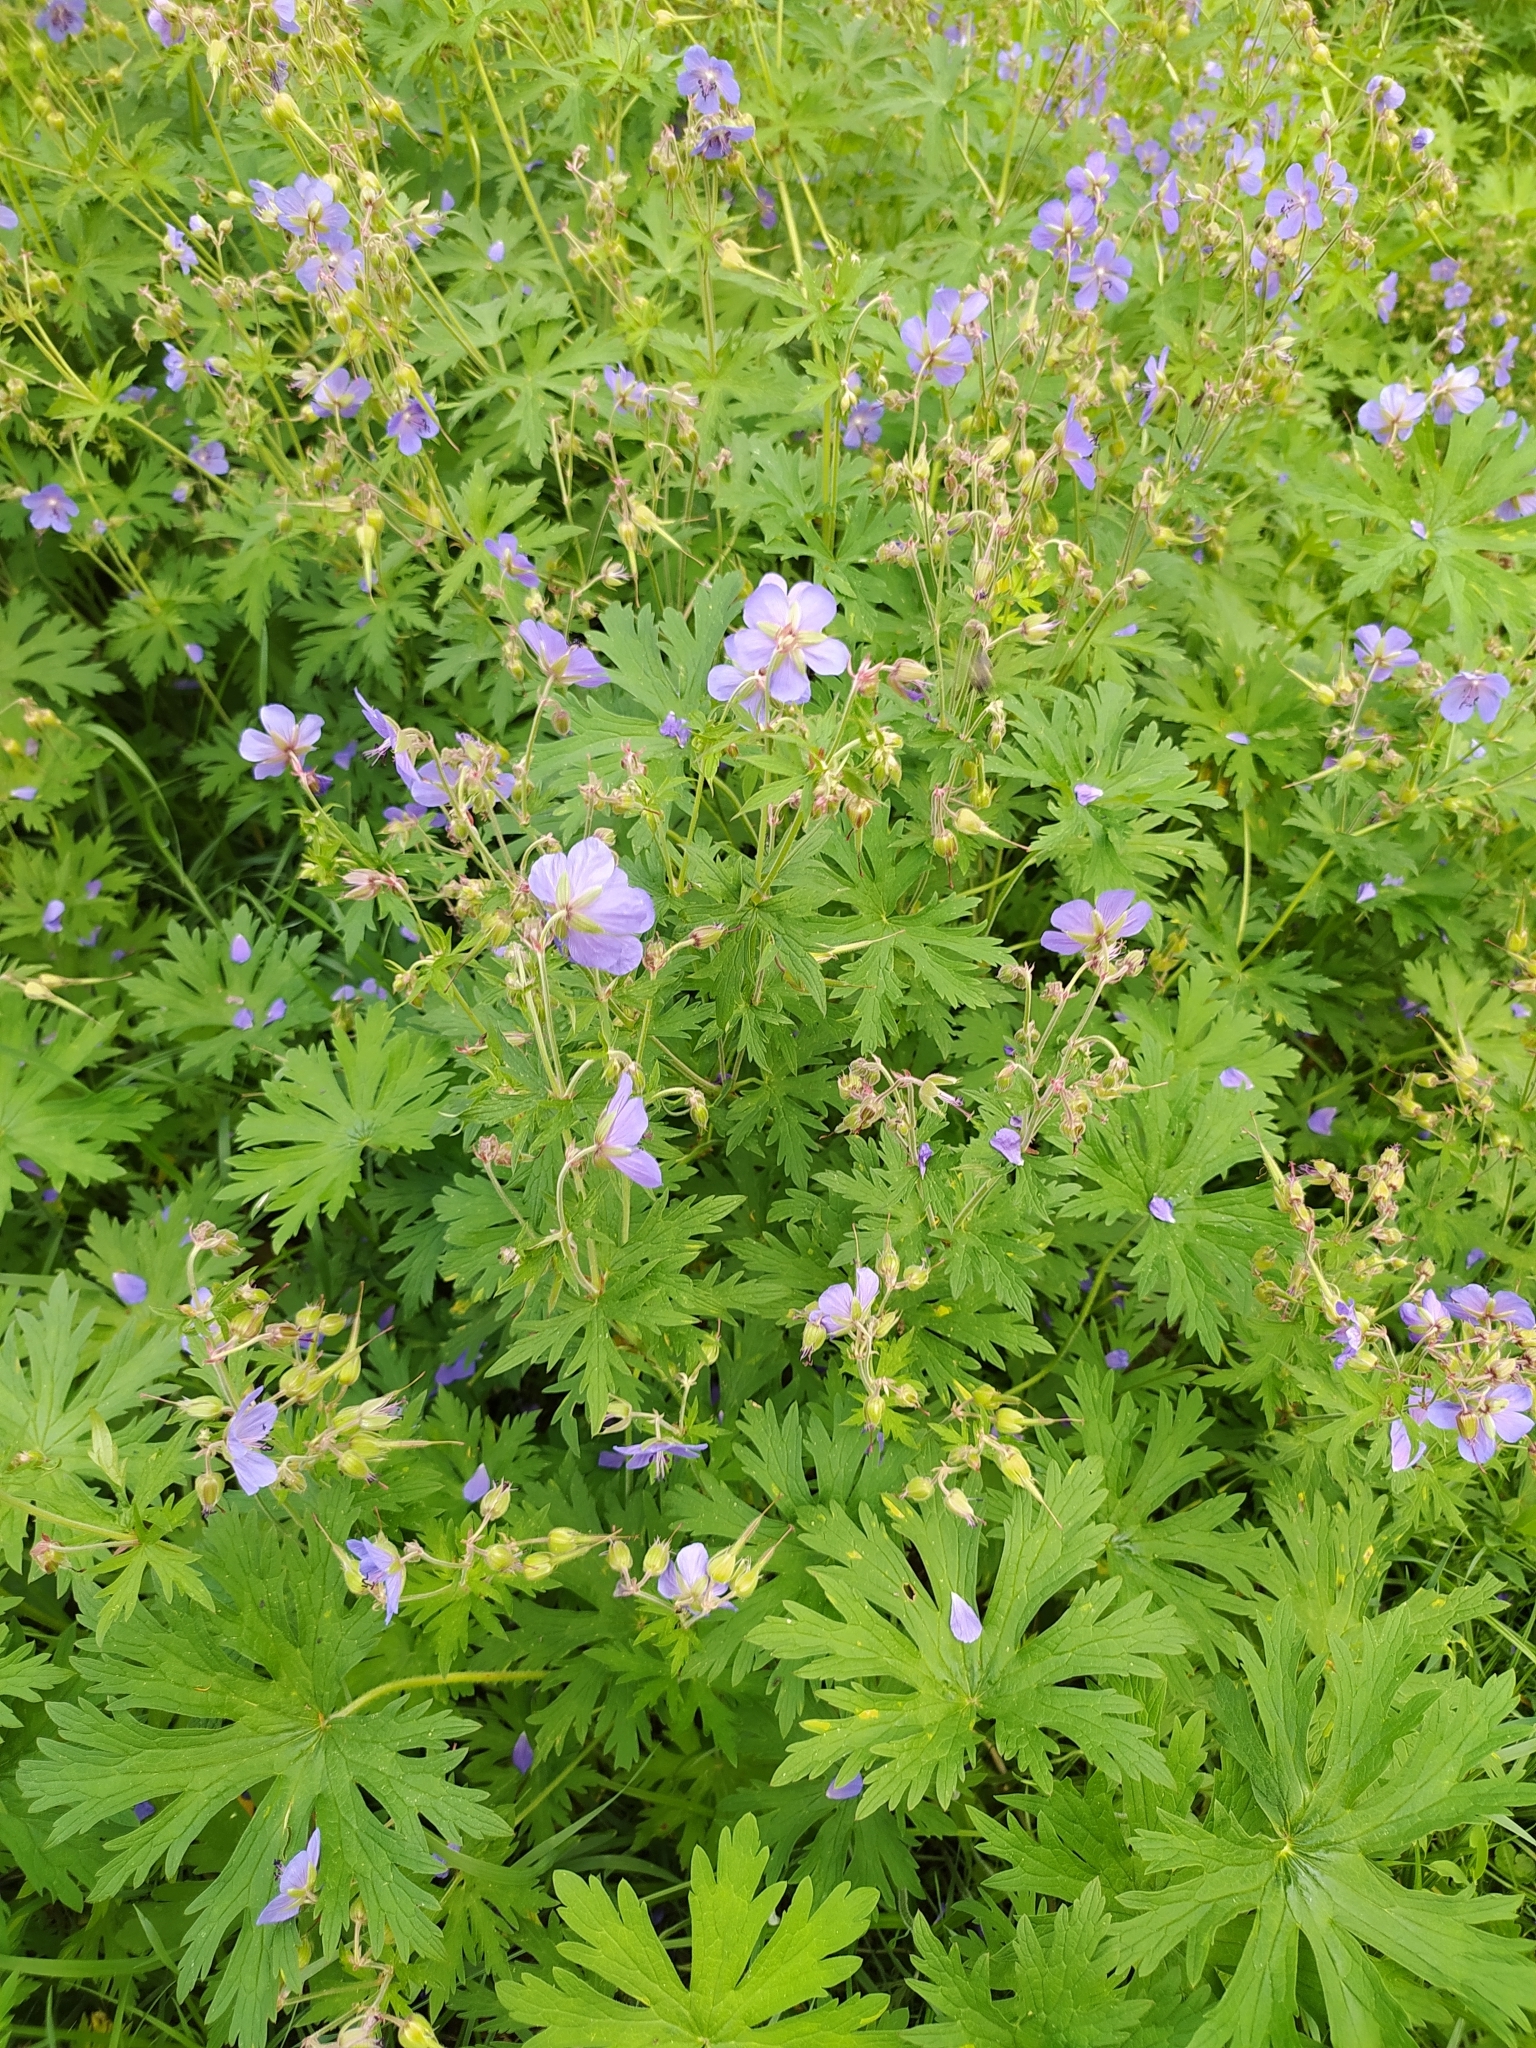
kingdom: Plantae
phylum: Tracheophyta
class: Magnoliopsida
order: Geraniales
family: Geraniaceae
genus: Geranium
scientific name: Geranium pratense
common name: Meadow crane's-bill
